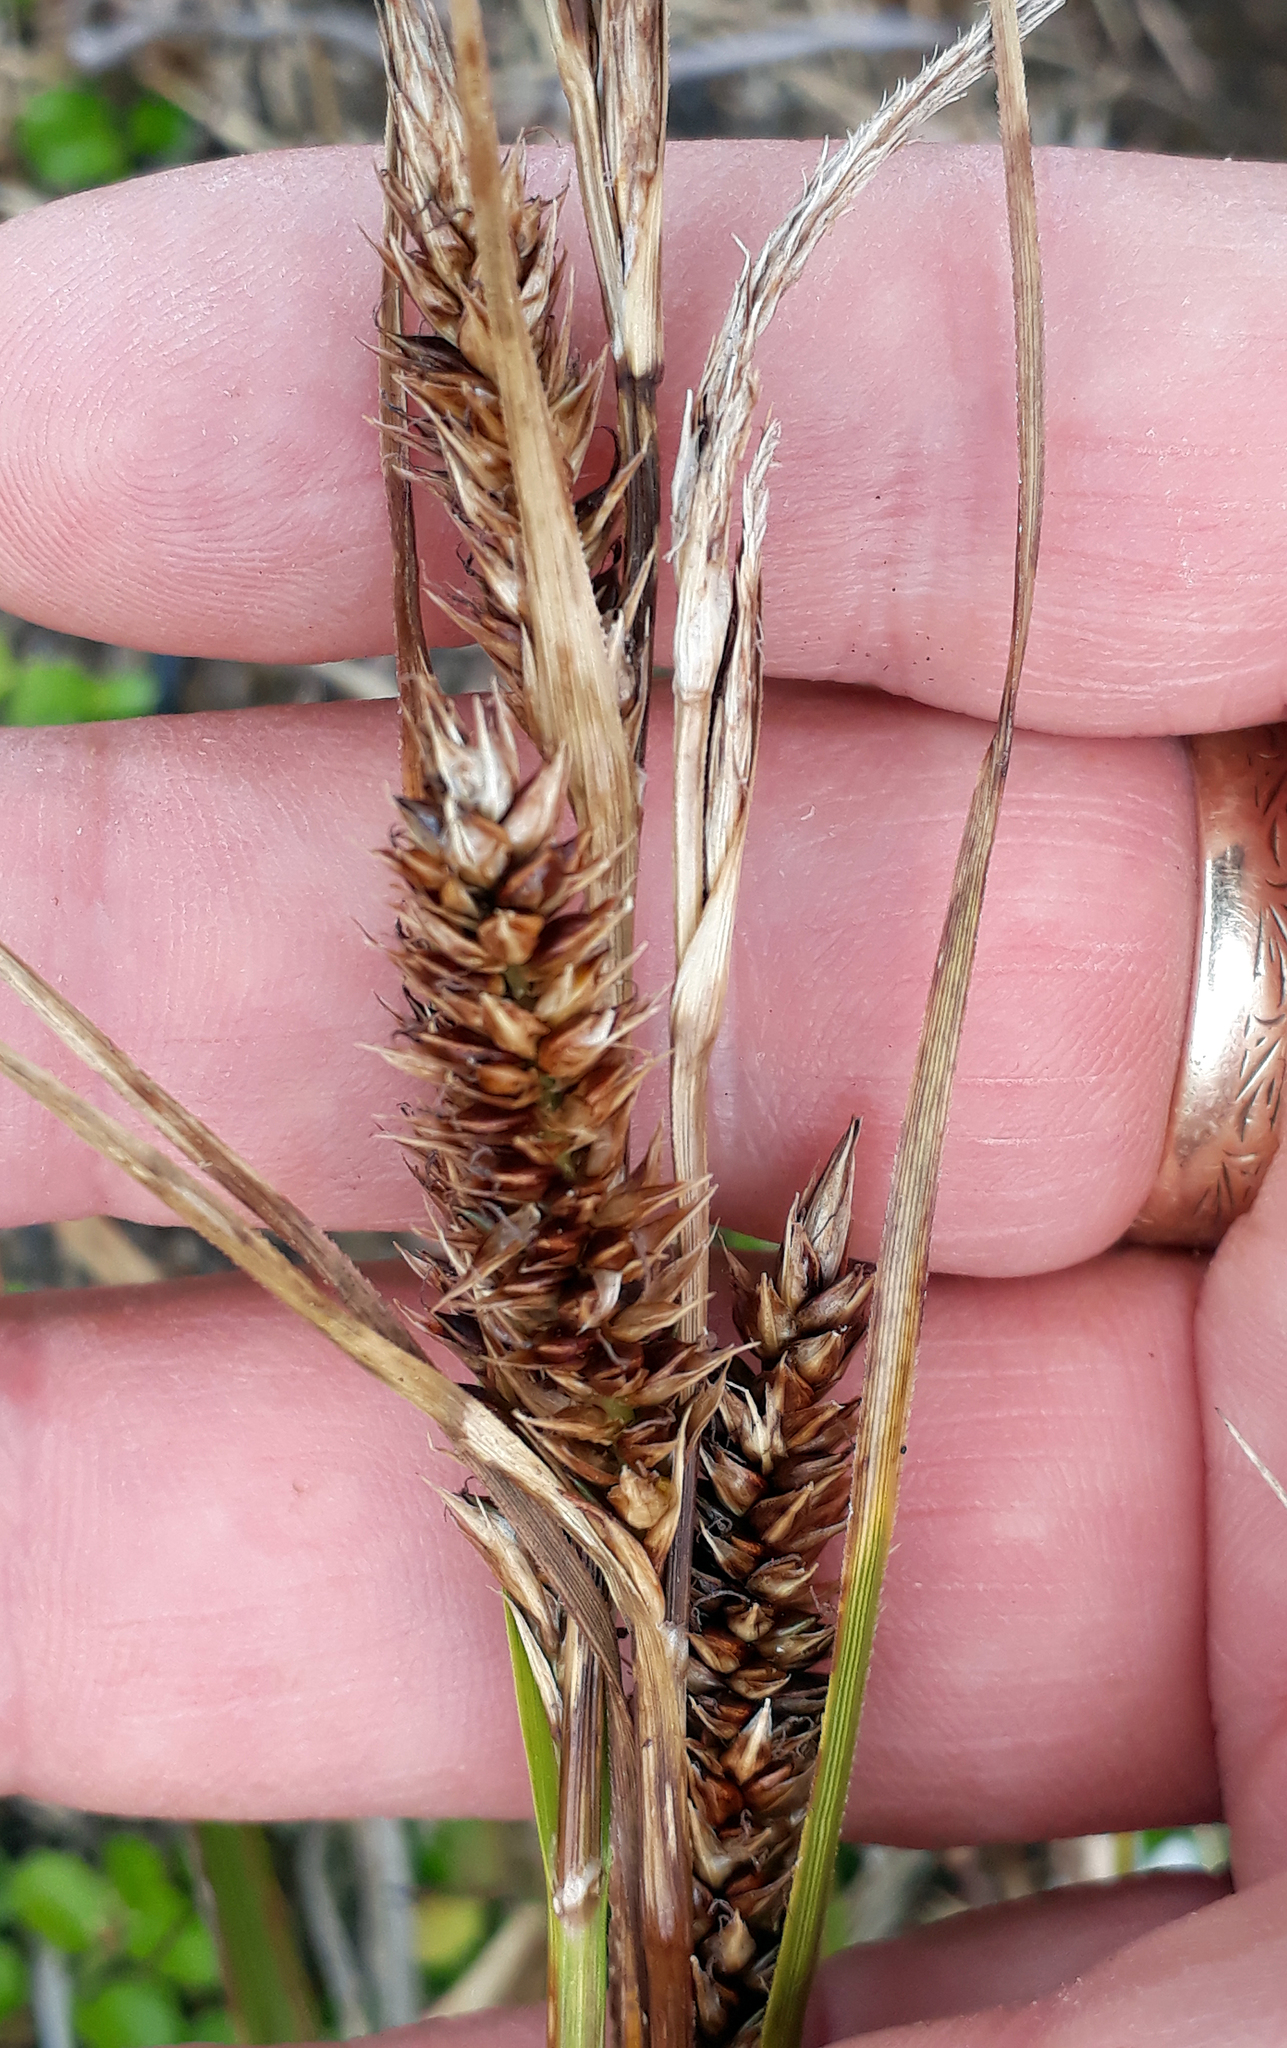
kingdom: Plantae
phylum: Tracheophyta
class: Liliopsida
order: Poales
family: Cyperaceae
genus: Carex
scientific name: Carex chathamica
